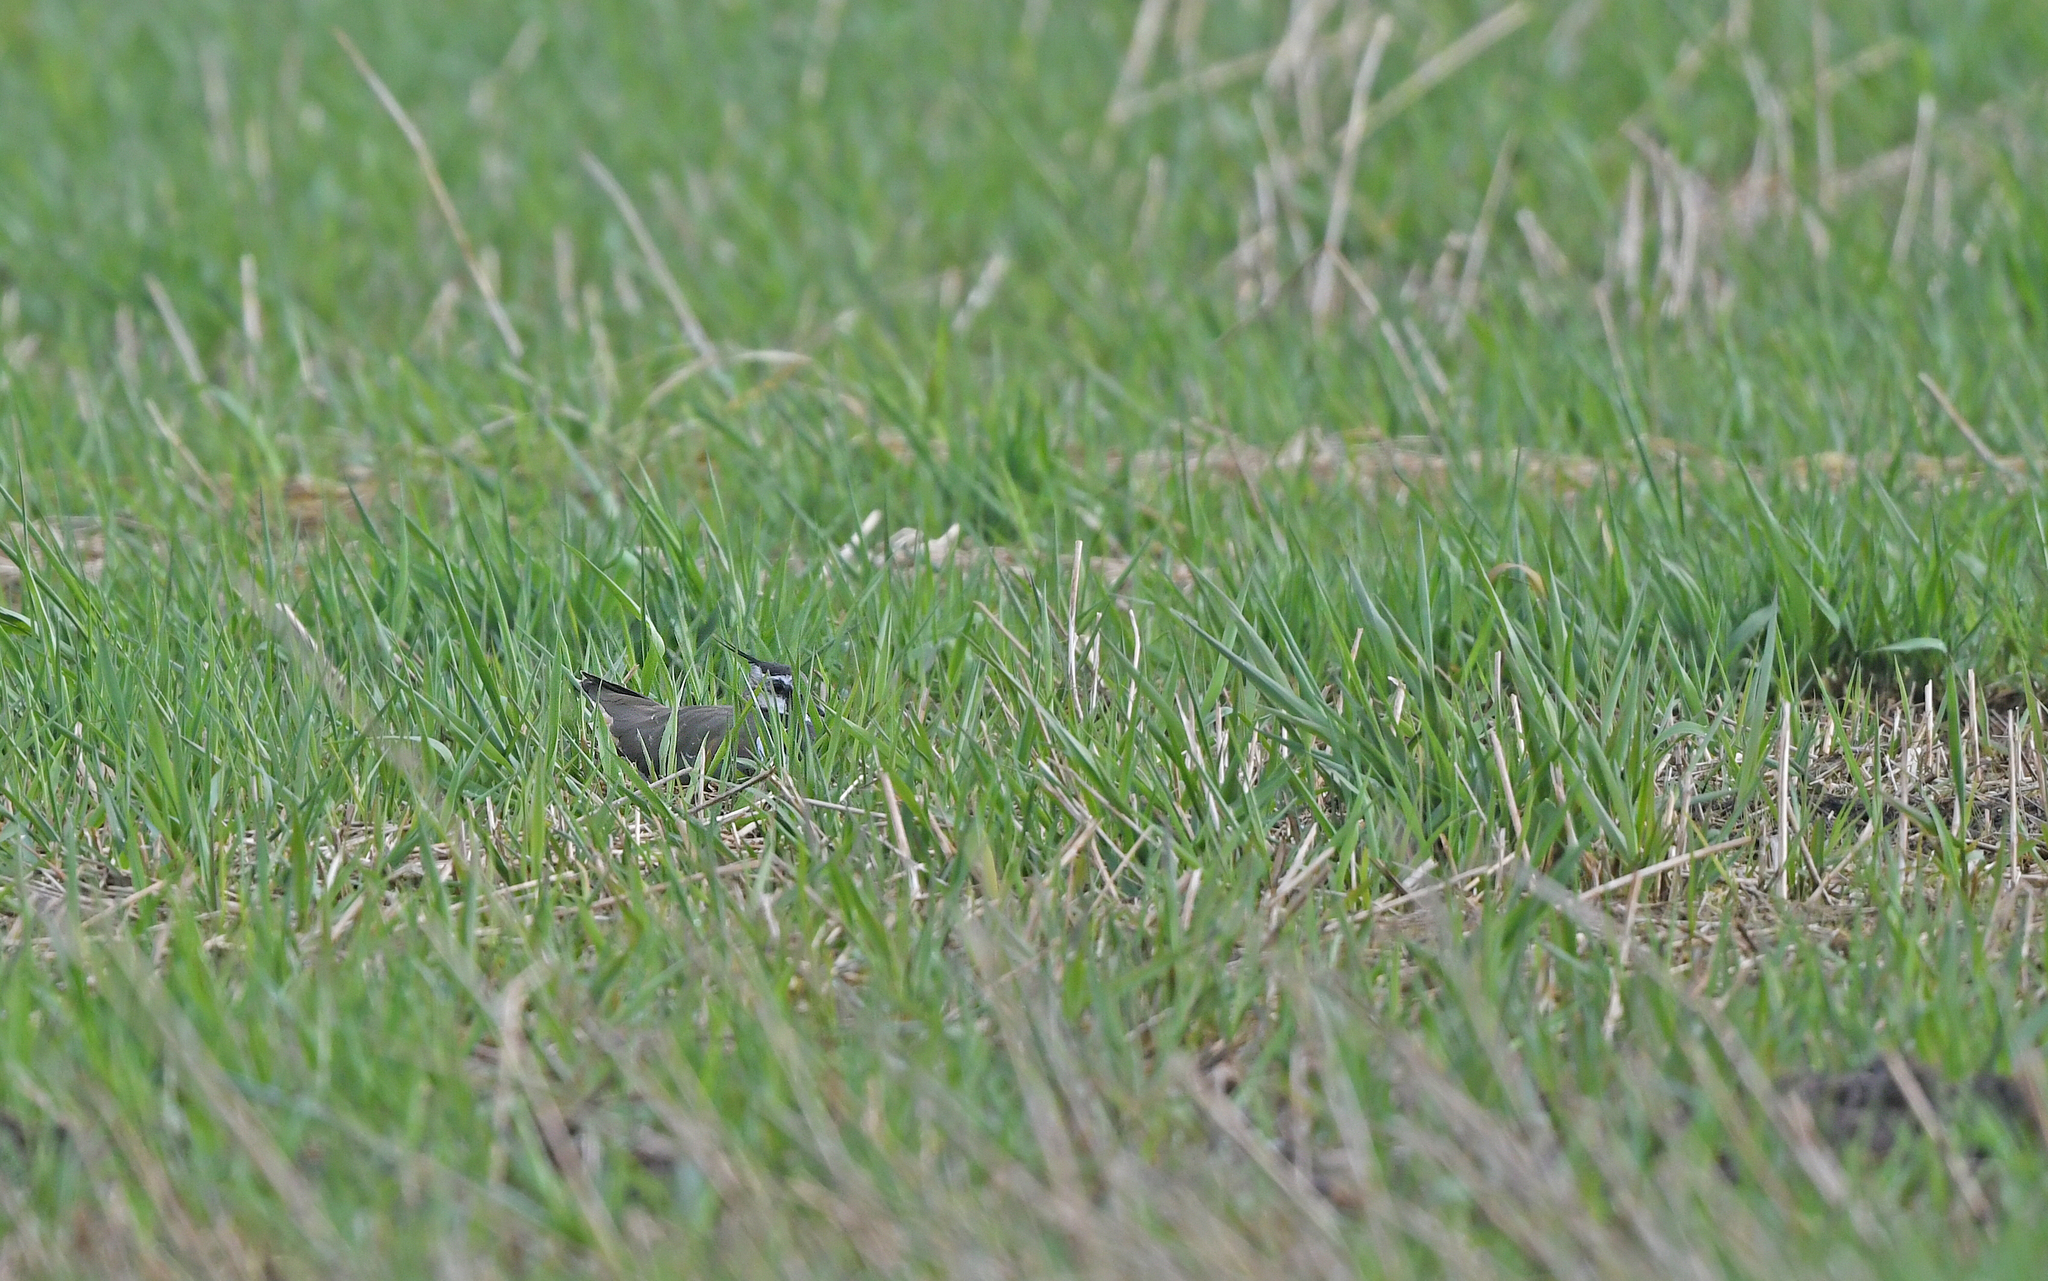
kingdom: Animalia
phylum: Chordata
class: Aves
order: Charadriiformes
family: Charadriidae
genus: Vanellus
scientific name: Vanellus vanellus
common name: Northern lapwing
